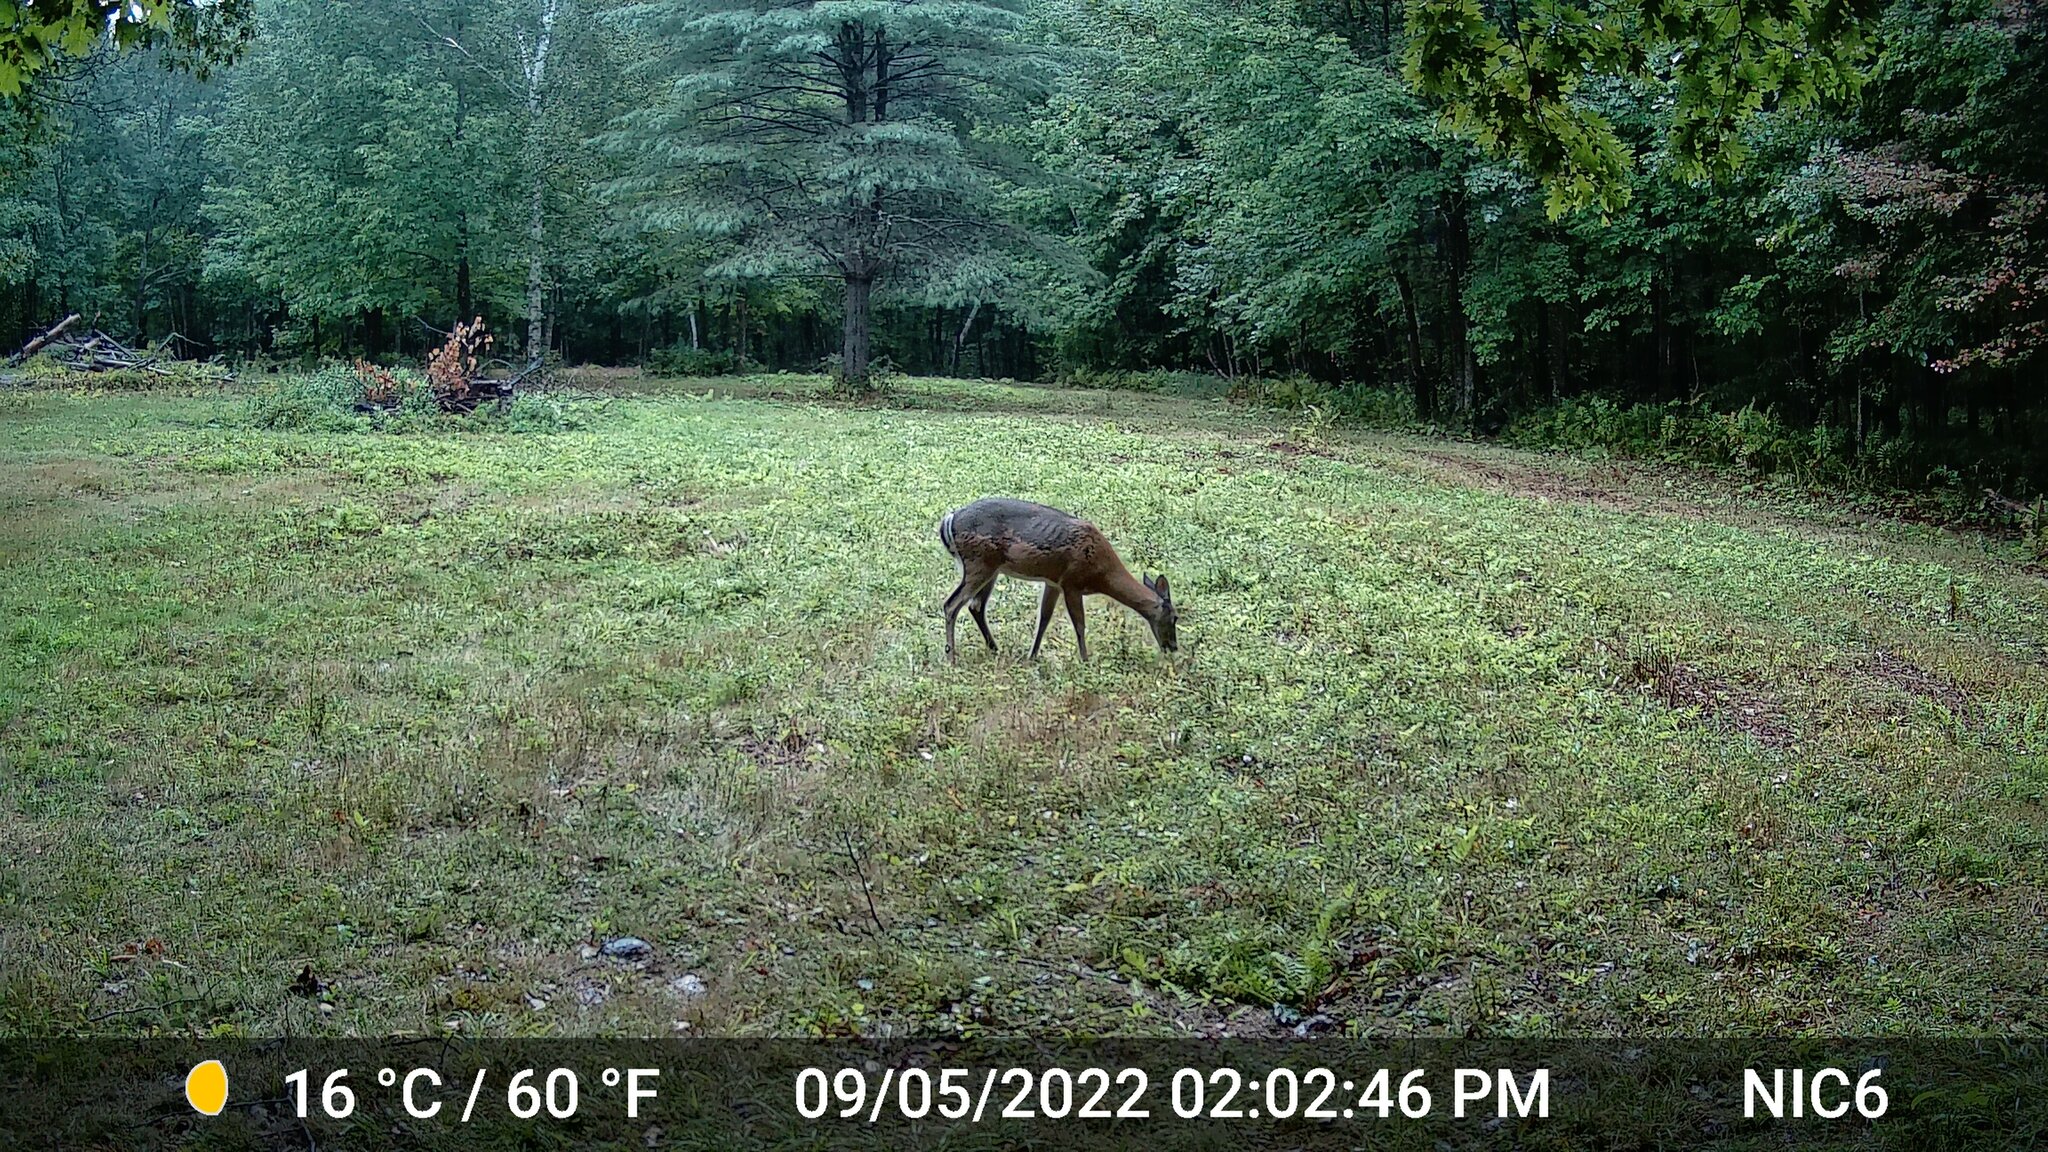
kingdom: Animalia
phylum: Chordata
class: Mammalia
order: Artiodactyla
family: Cervidae
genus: Odocoileus
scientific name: Odocoileus virginianus
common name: White-tailed deer
